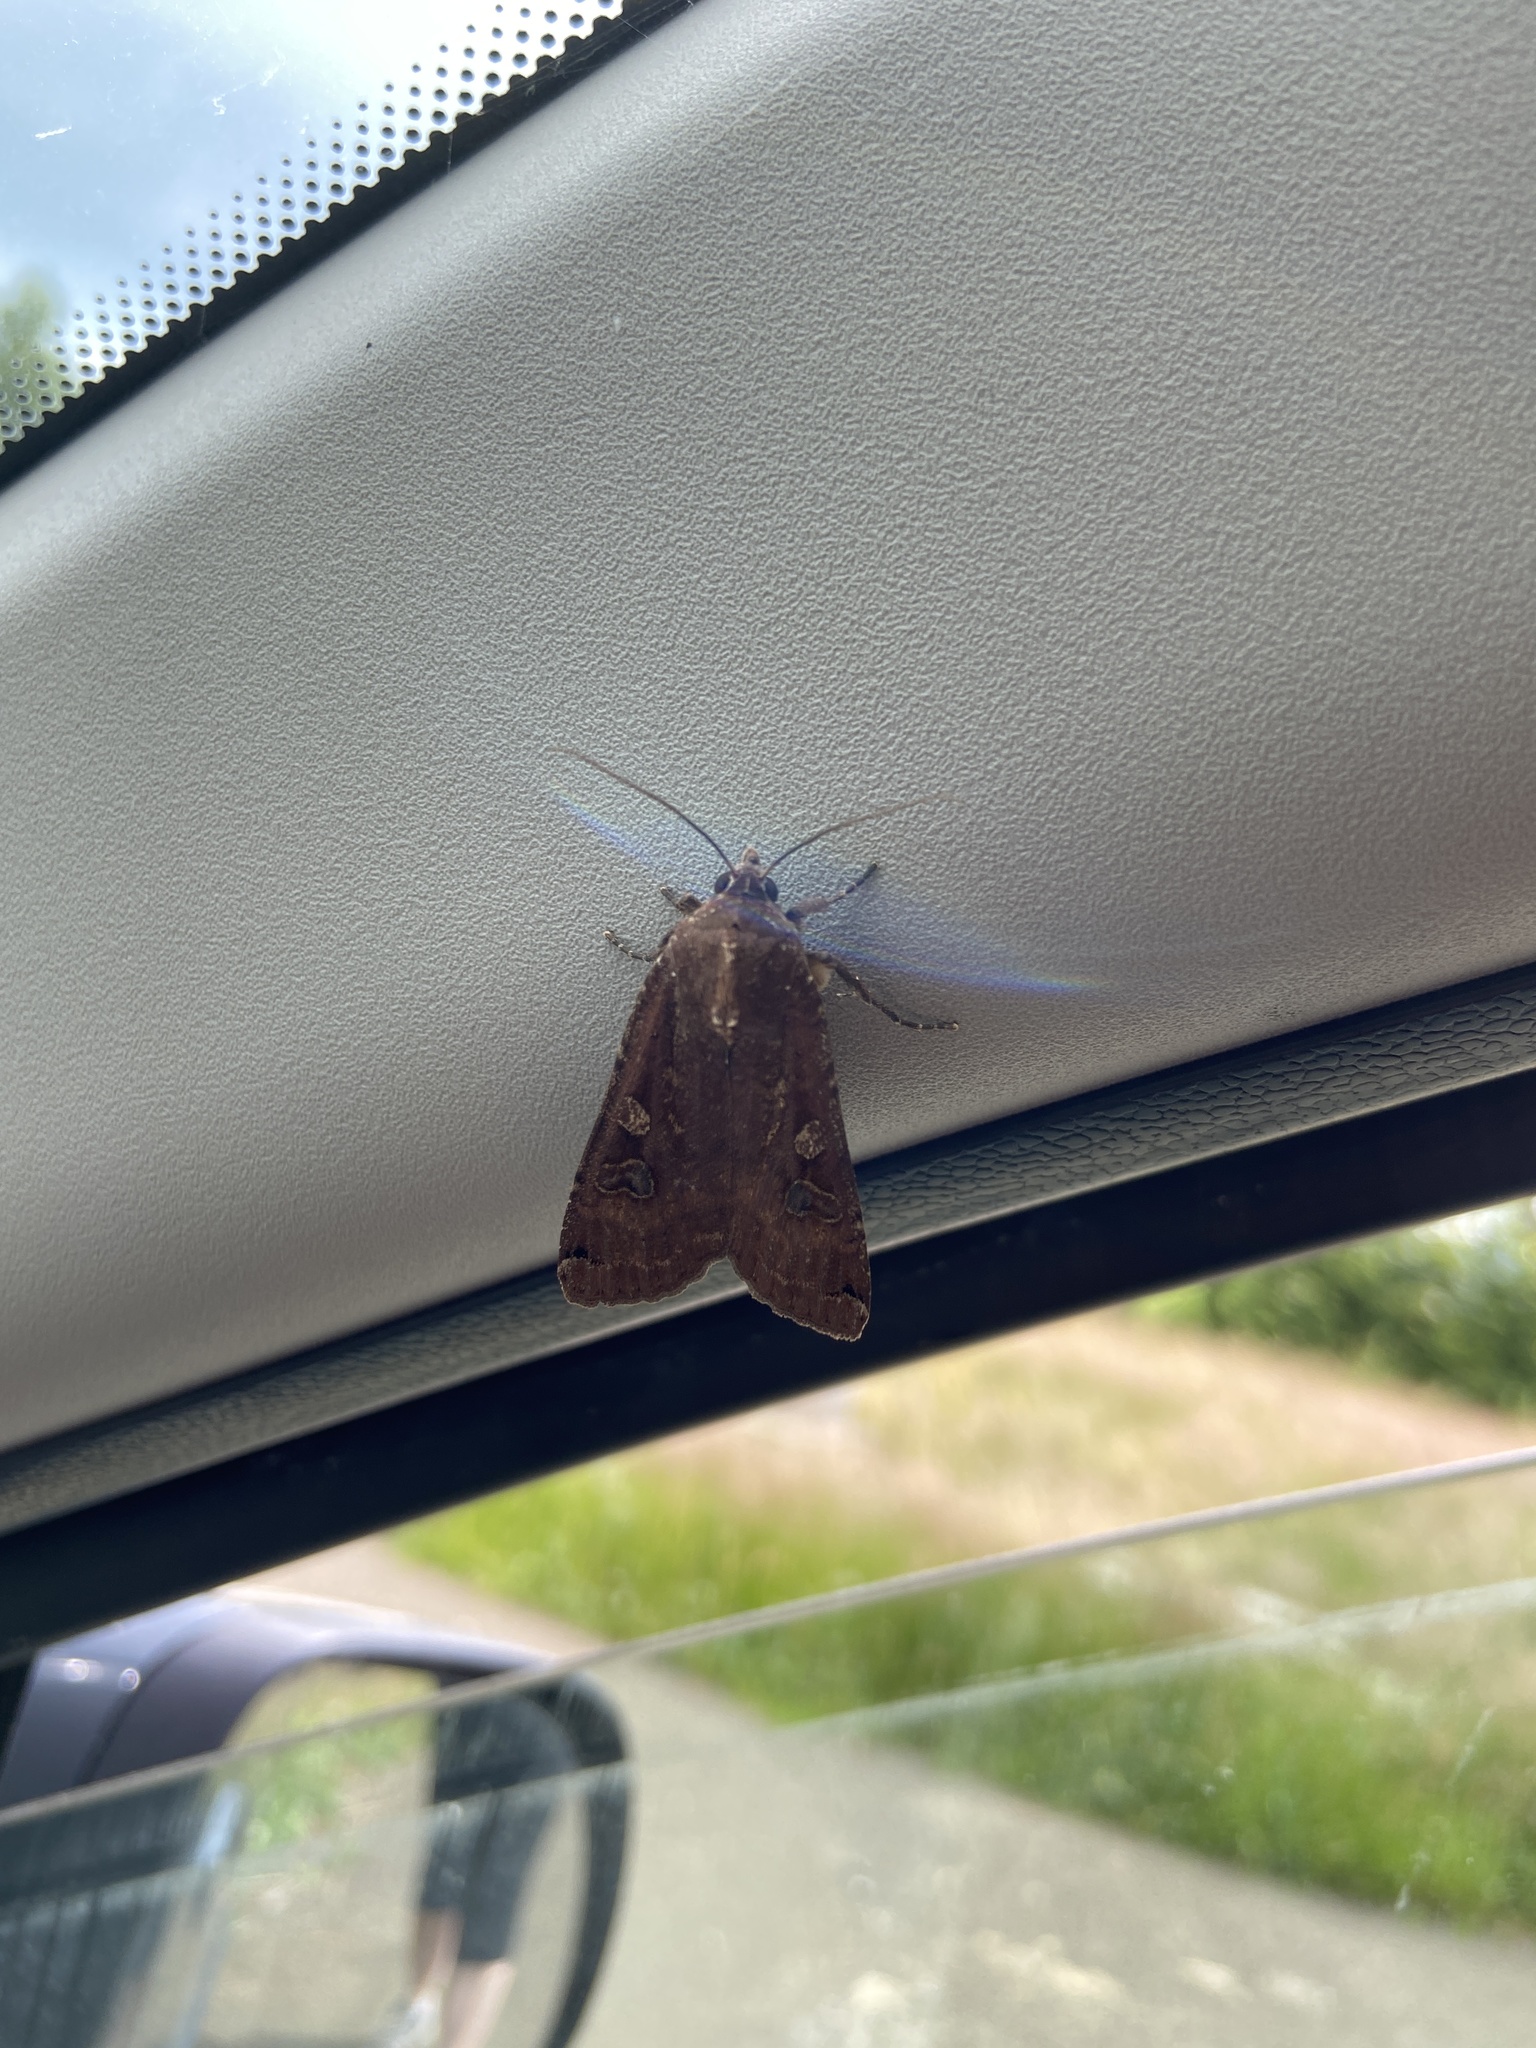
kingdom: Animalia
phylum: Arthropoda
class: Insecta
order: Lepidoptera
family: Noctuidae
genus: Noctua
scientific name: Noctua pronuba
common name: Large yellow underwing
